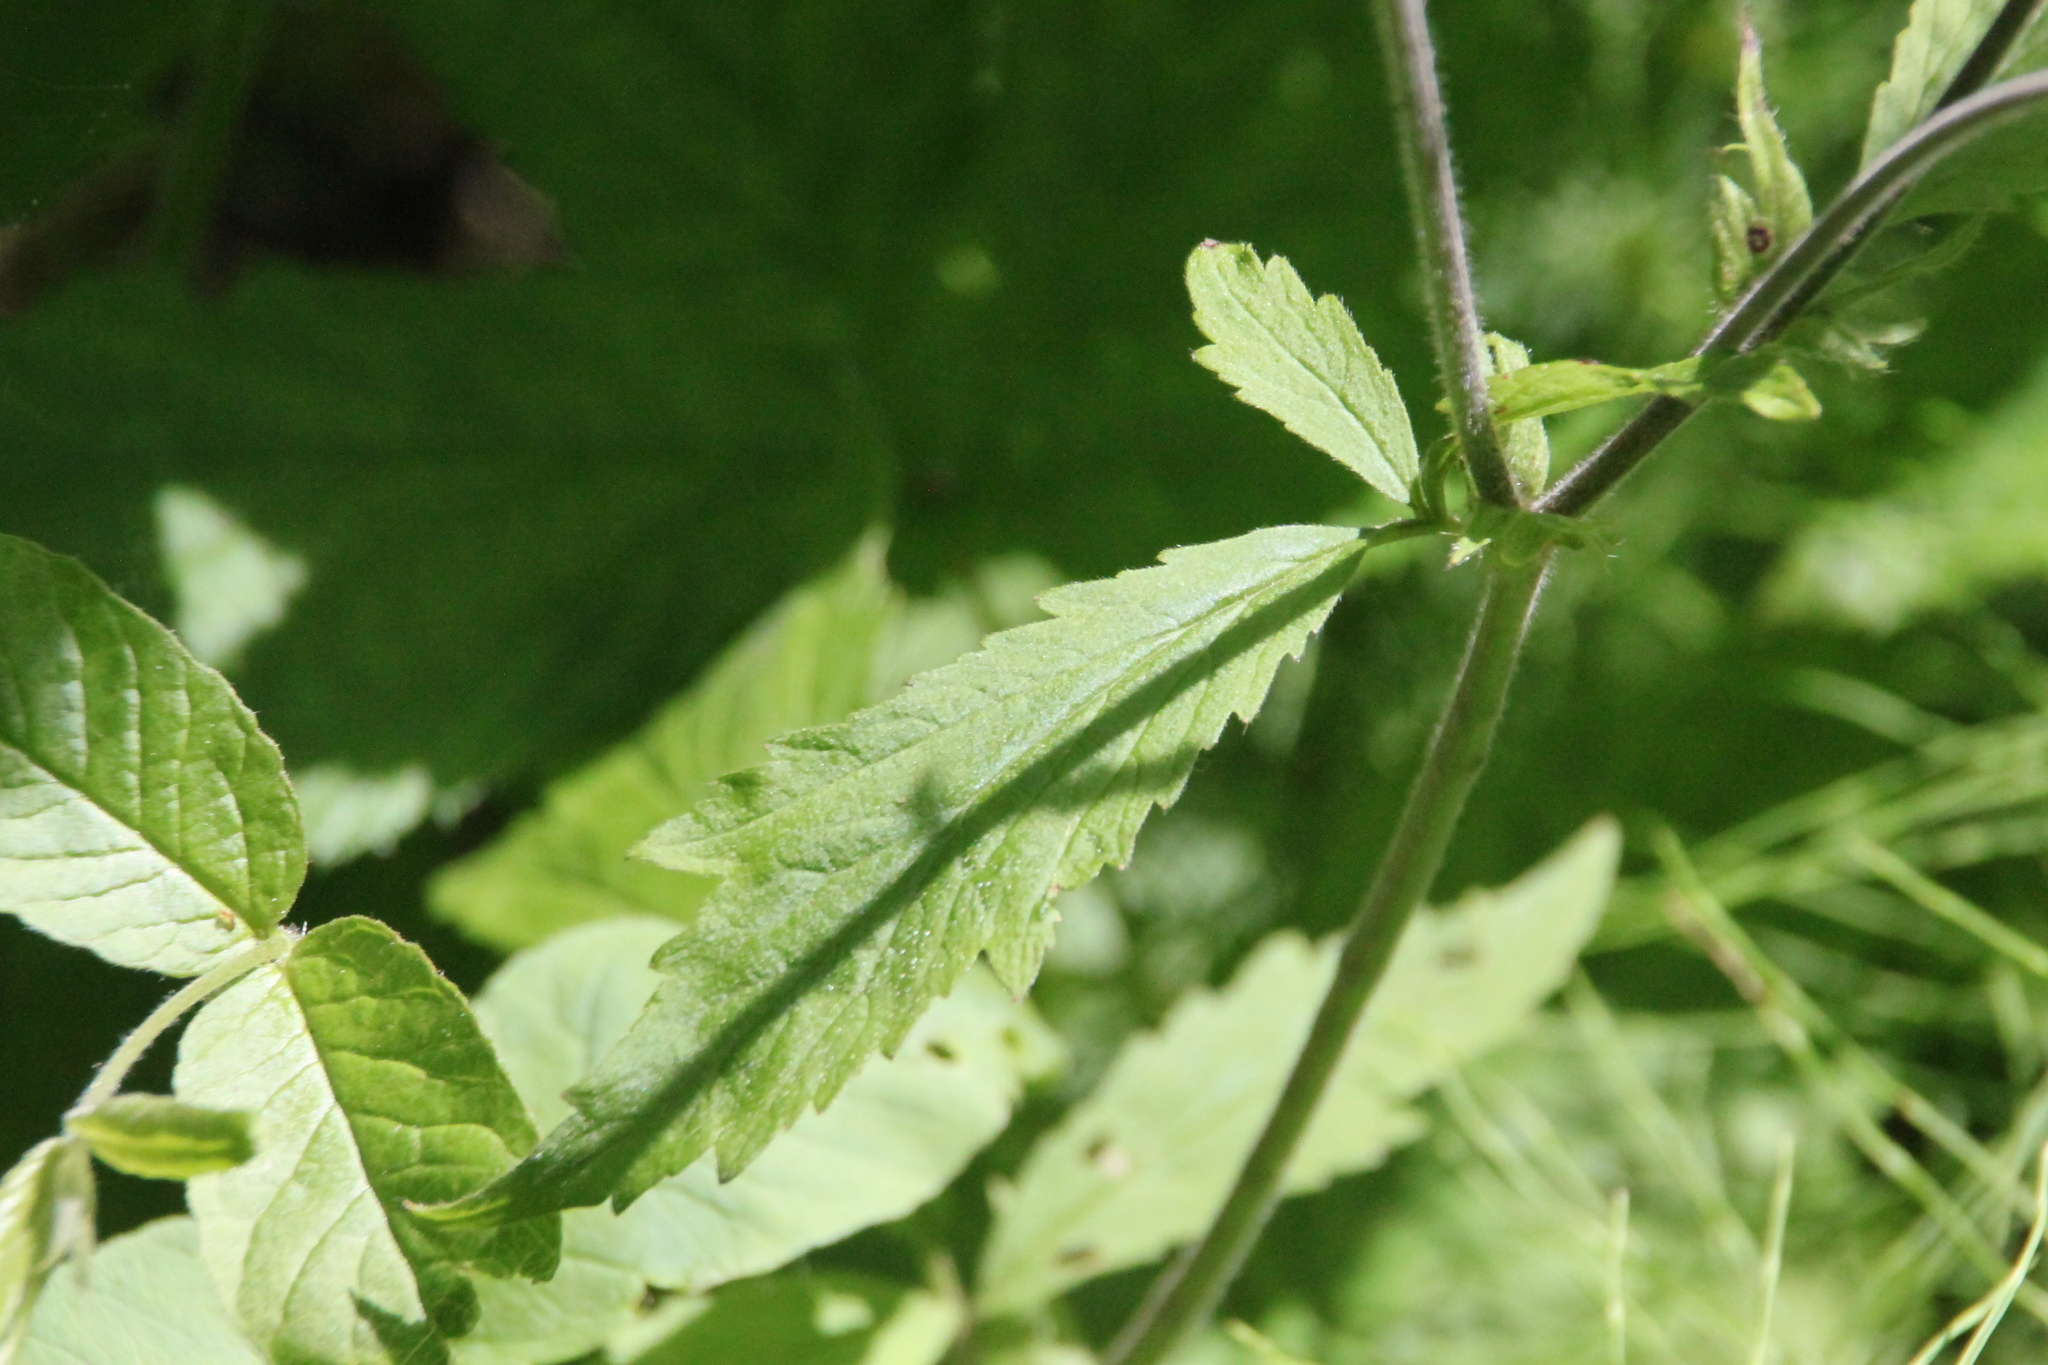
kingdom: Plantae
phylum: Tracheophyta
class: Magnoliopsida
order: Rosales
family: Rosaceae
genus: Geum
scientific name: Geum rivale
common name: Water avens
